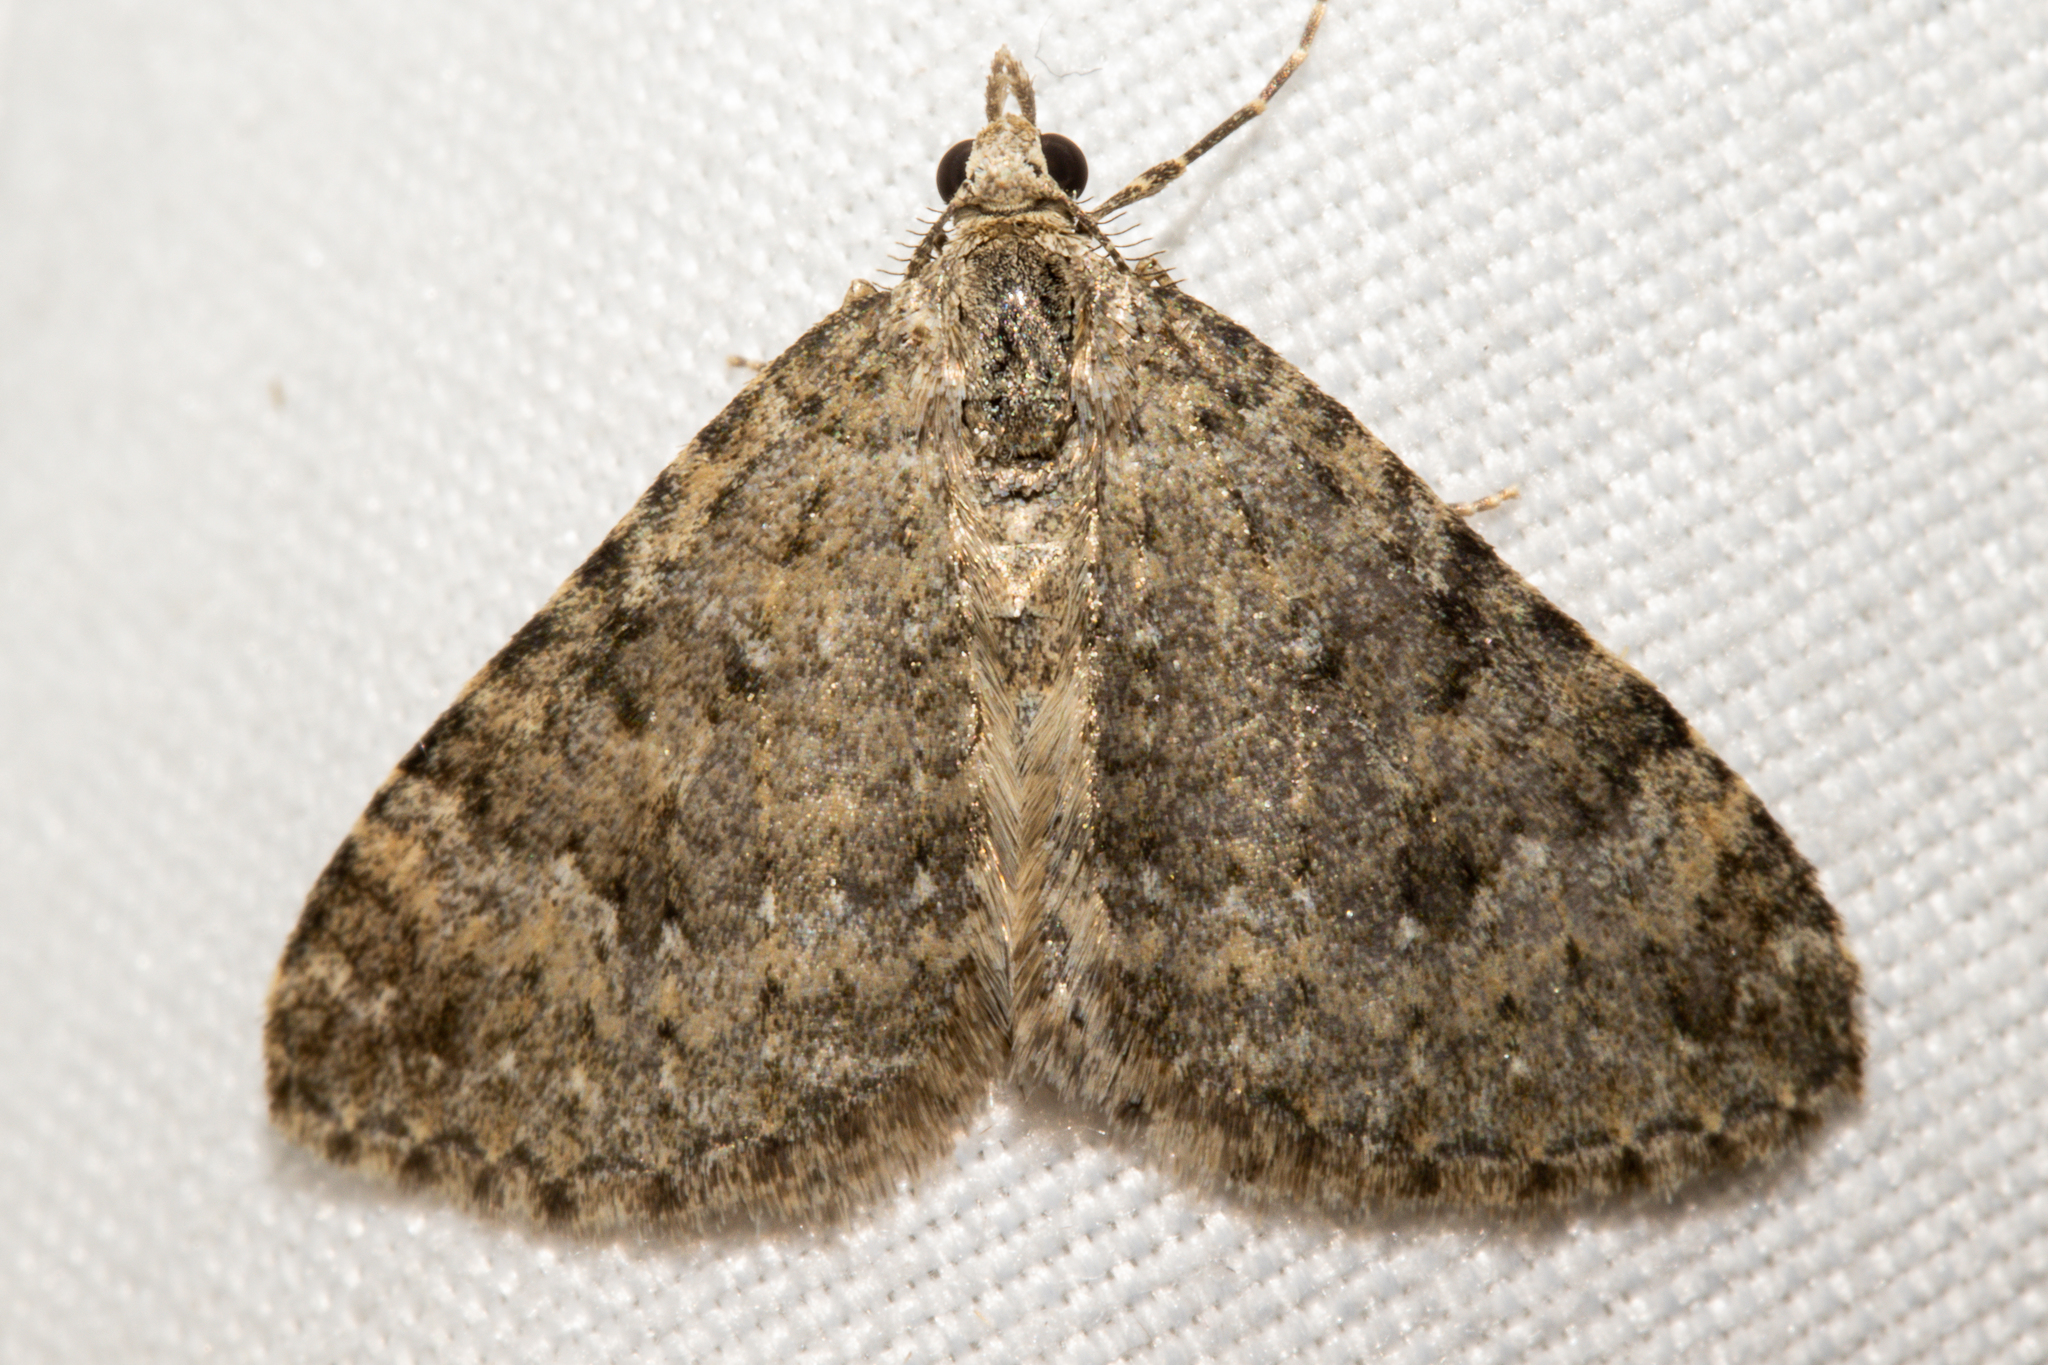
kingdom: Animalia
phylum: Arthropoda
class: Insecta
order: Lepidoptera
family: Geometridae
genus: Helastia
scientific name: Helastia corcularia
